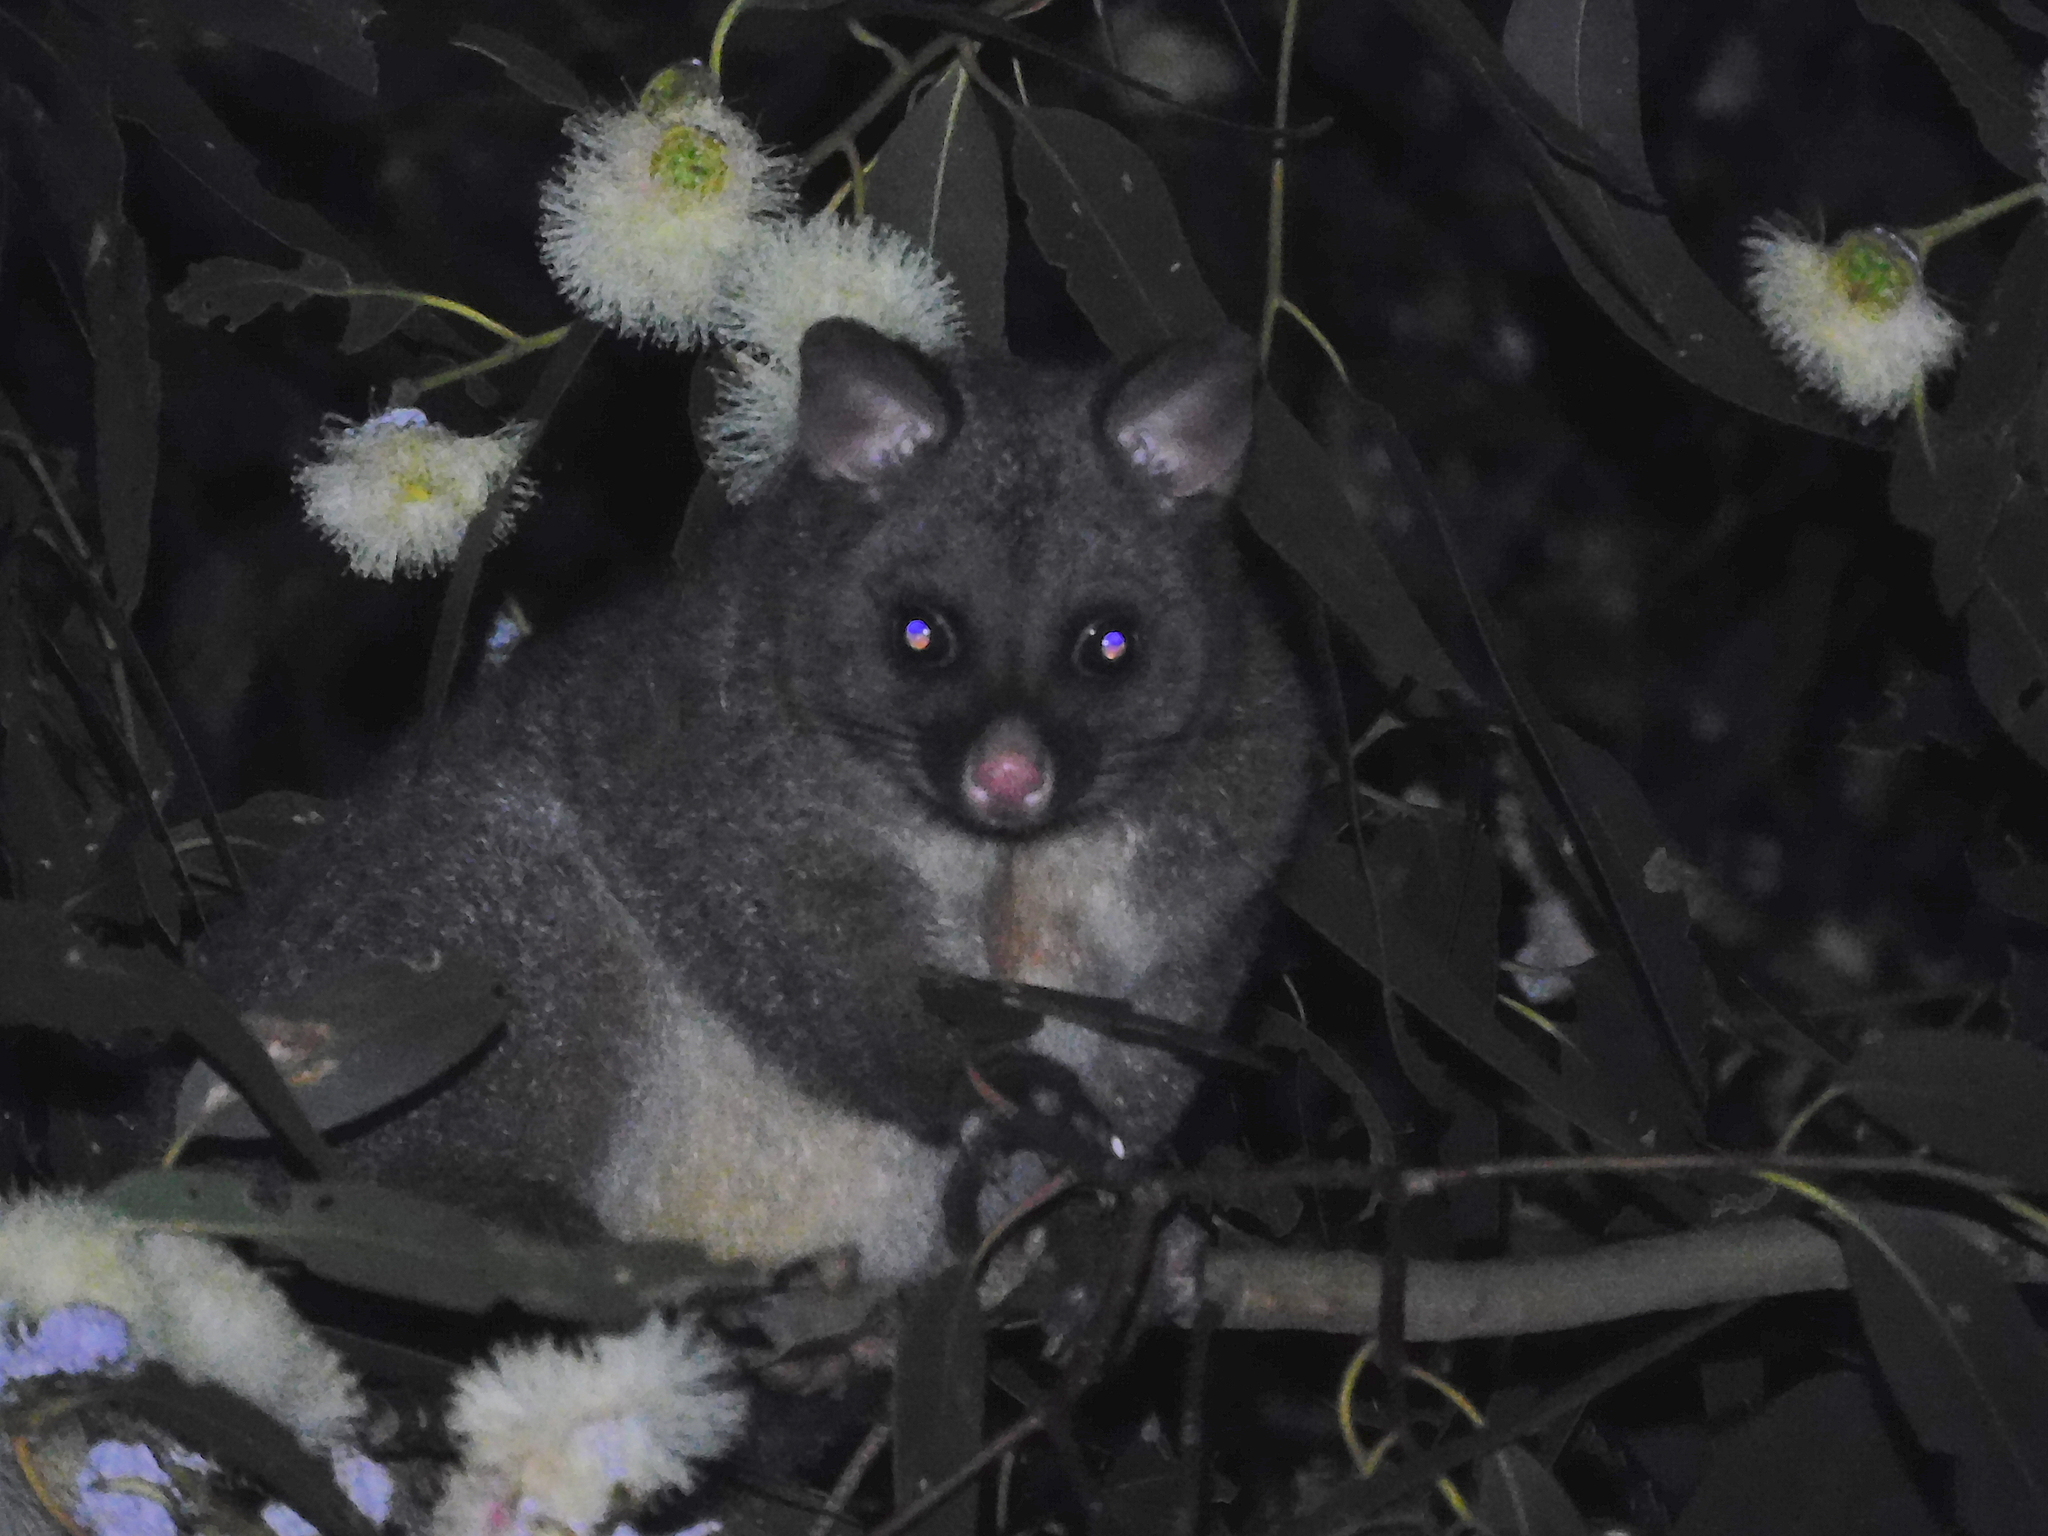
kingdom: Animalia
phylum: Chordata
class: Mammalia
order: Diprotodontia
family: Phalangeridae
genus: Trichosurus
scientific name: Trichosurus vulpecula
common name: Common brushtail
